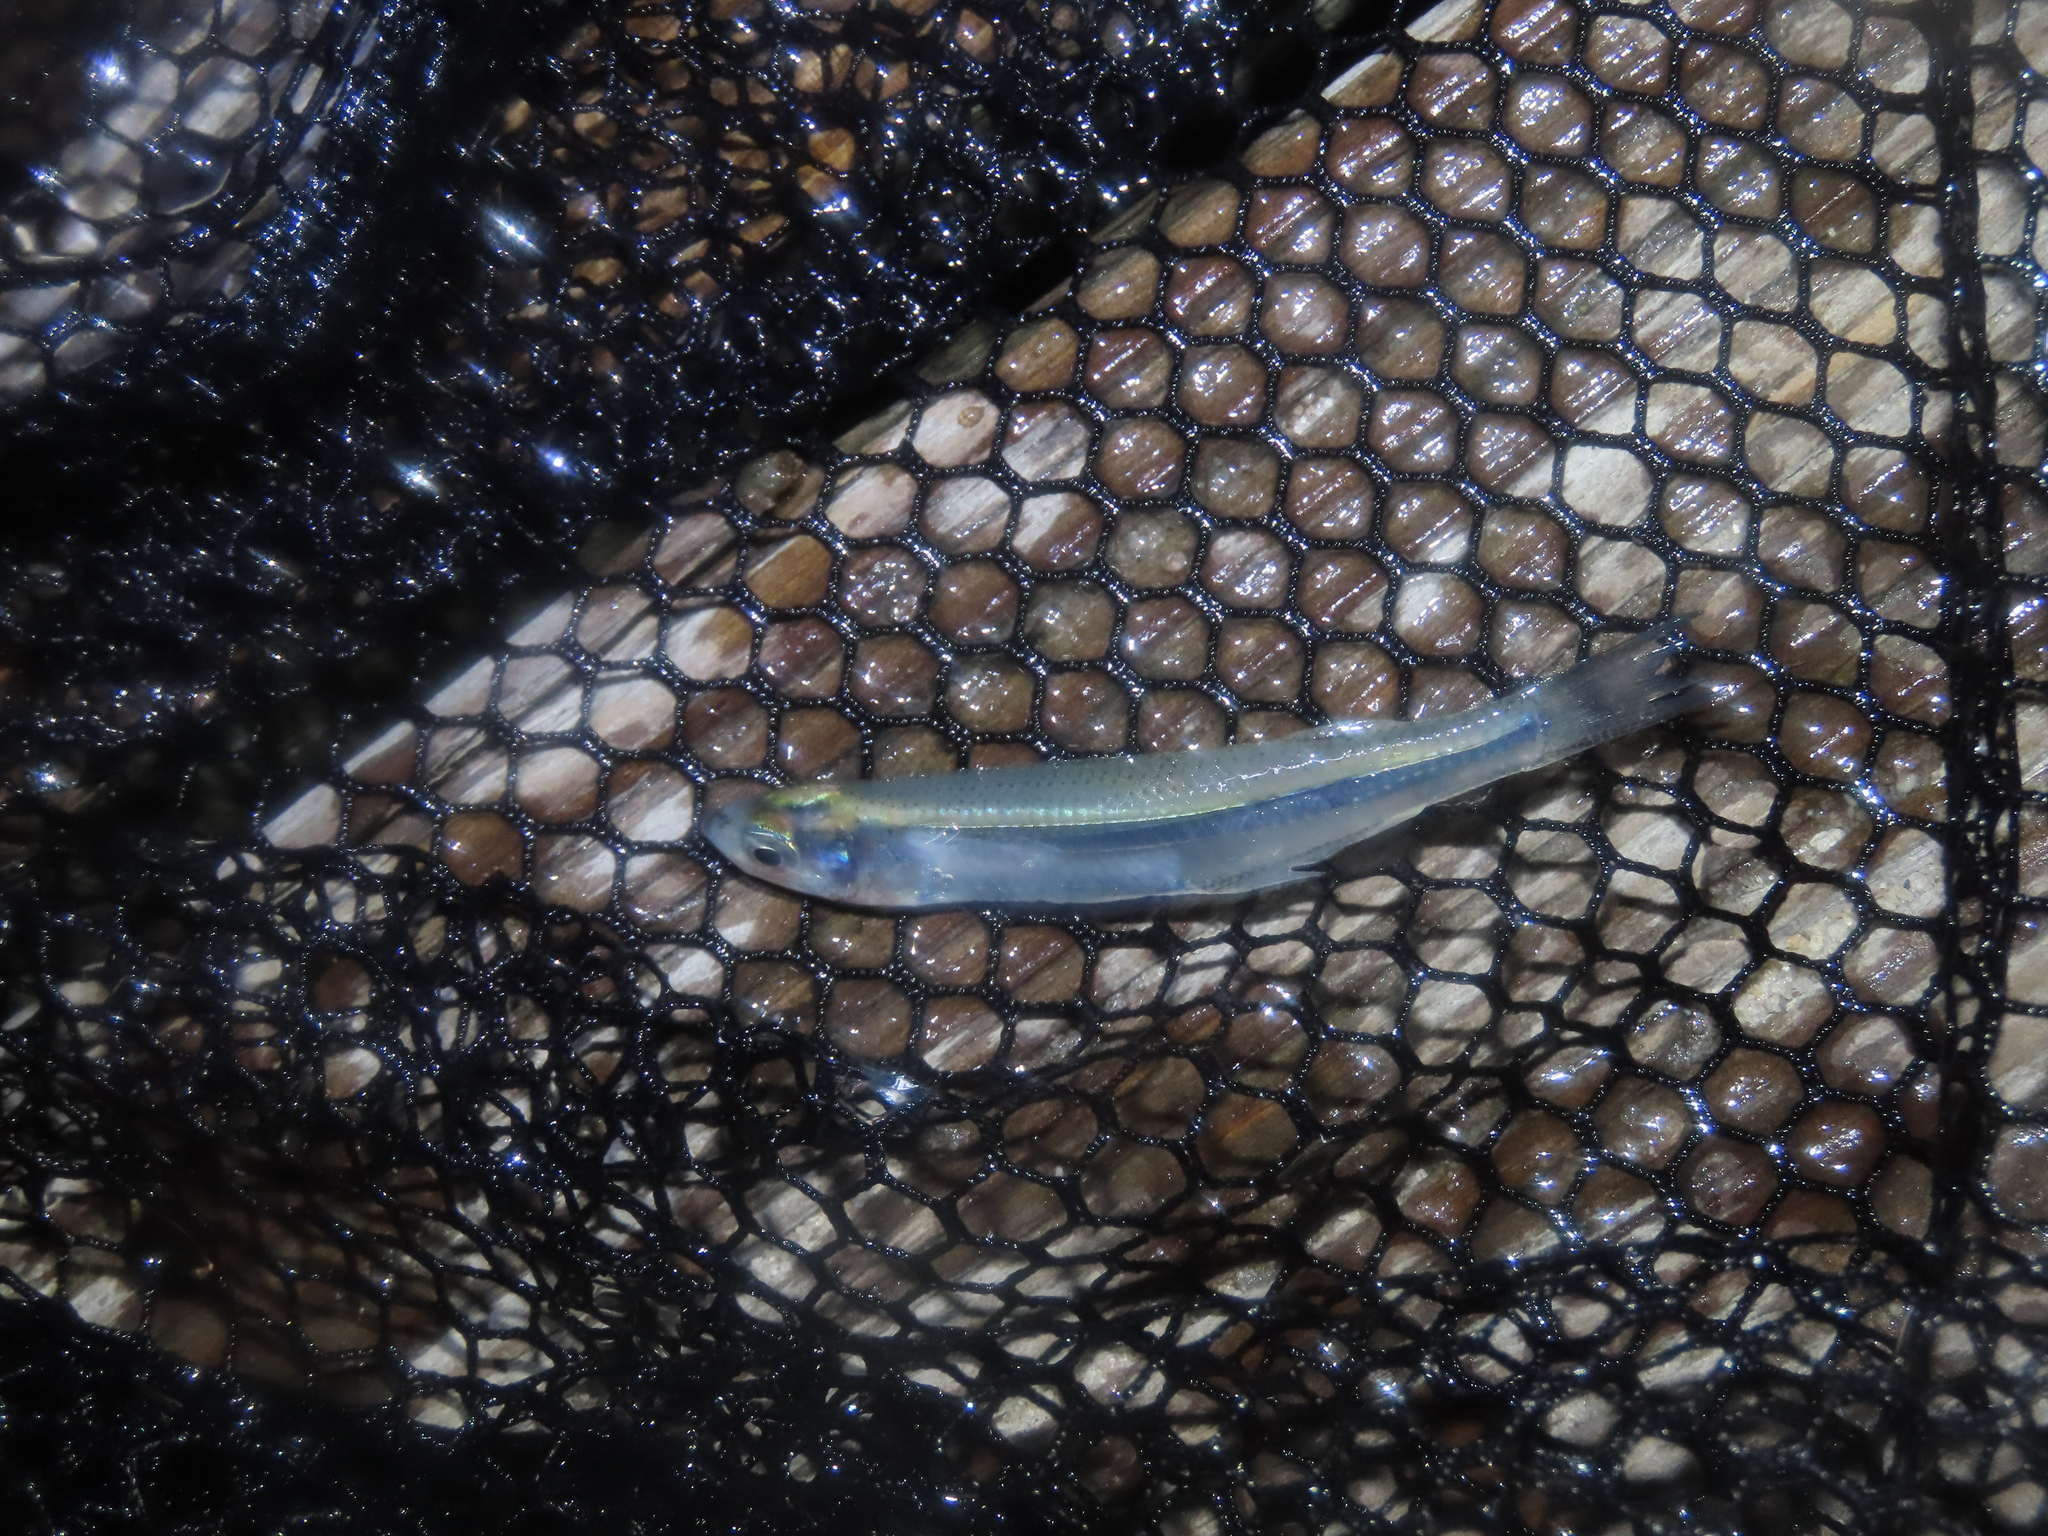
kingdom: Animalia
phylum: Chordata
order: Atheriniformes
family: Atherinopsidae
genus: Menidia
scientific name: Menidia menidia
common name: Atlantic silverside
